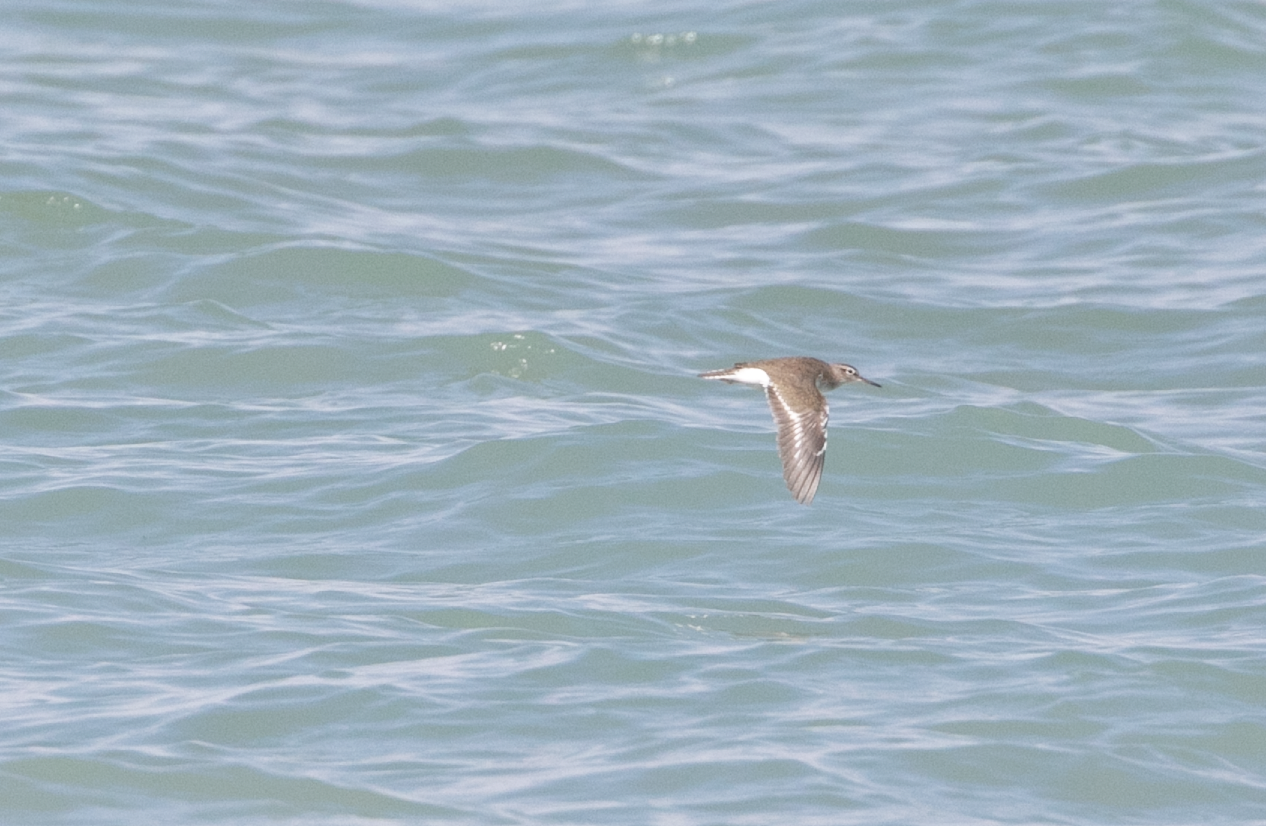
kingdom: Animalia
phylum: Chordata
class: Aves
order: Charadriiformes
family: Scolopacidae
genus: Actitis
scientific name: Actitis hypoleucos
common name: Common sandpiper
